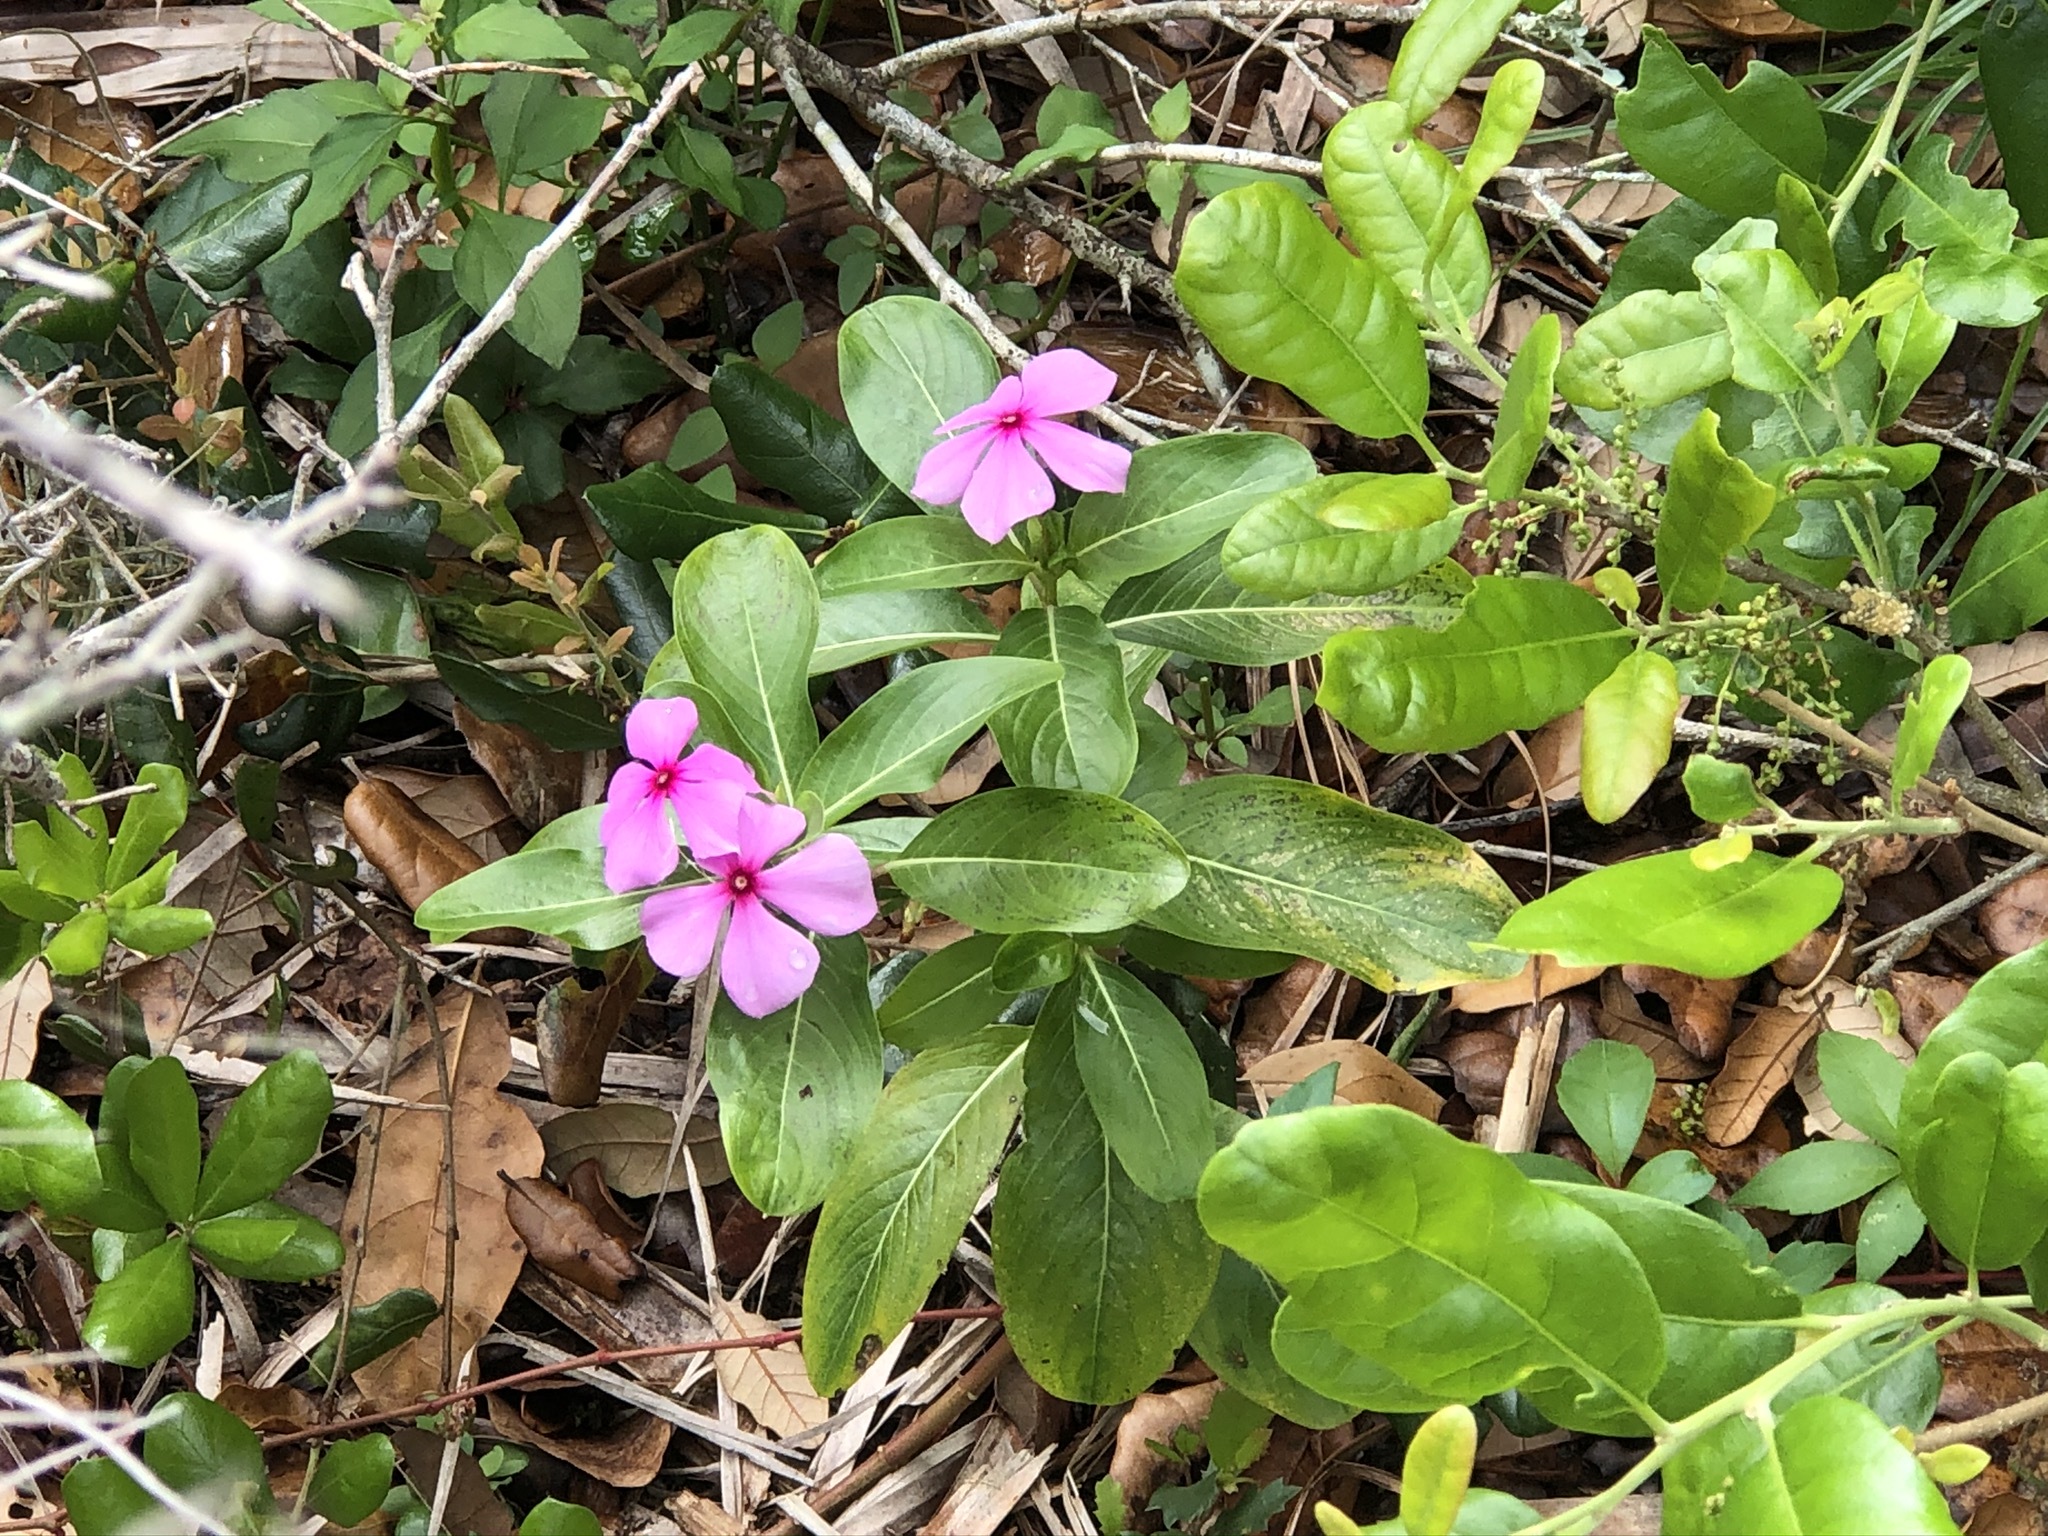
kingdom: Plantae
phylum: Tracheophyta
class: Magnoliopsida
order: Gentianales
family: Apocynaceae
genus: Catharanthus
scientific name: Catharanthus roseus
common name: Madagascar periwinkle
